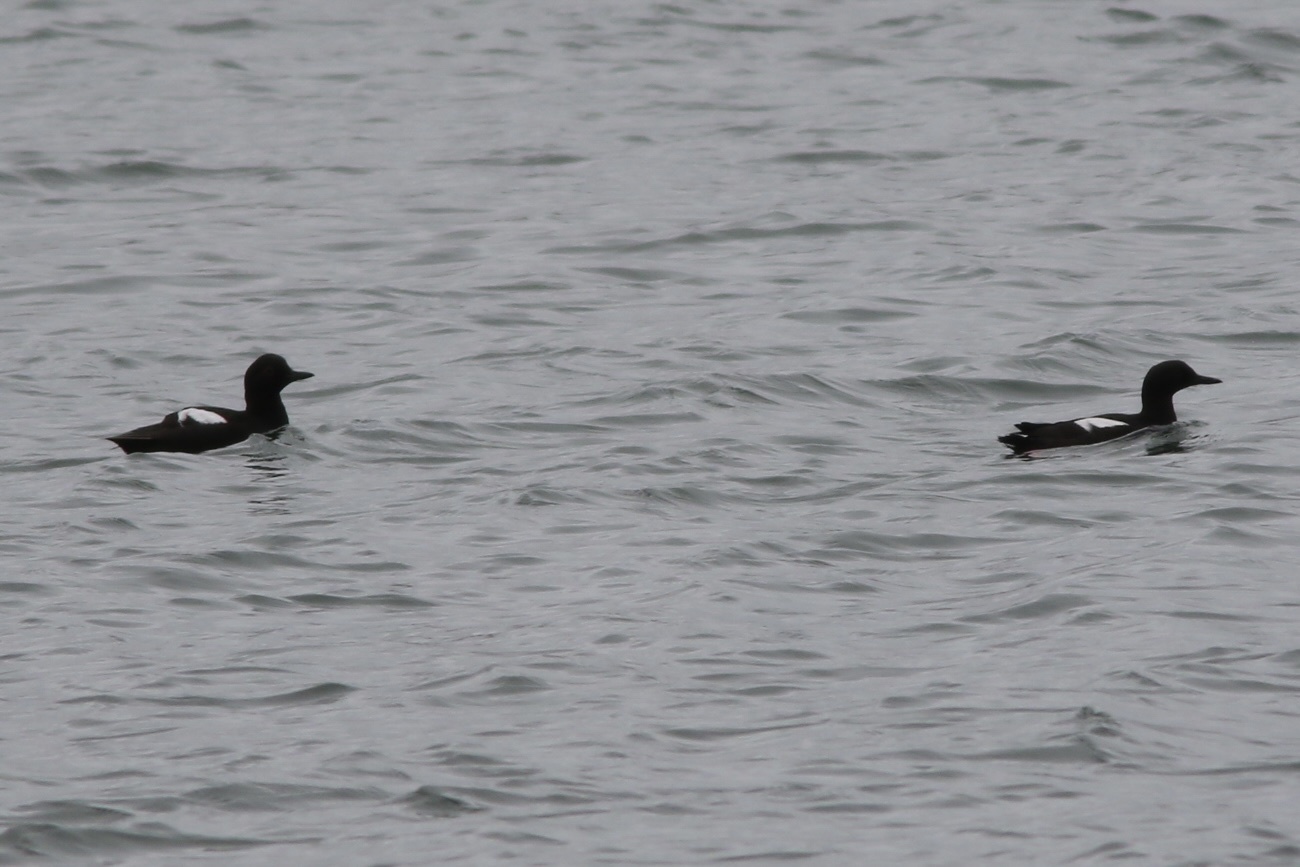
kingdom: Animalia
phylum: Chordata
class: Aves
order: Charadriiformes
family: Alcidae
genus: Cepphus
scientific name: Cepphus columba
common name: Pigeon guillemot
